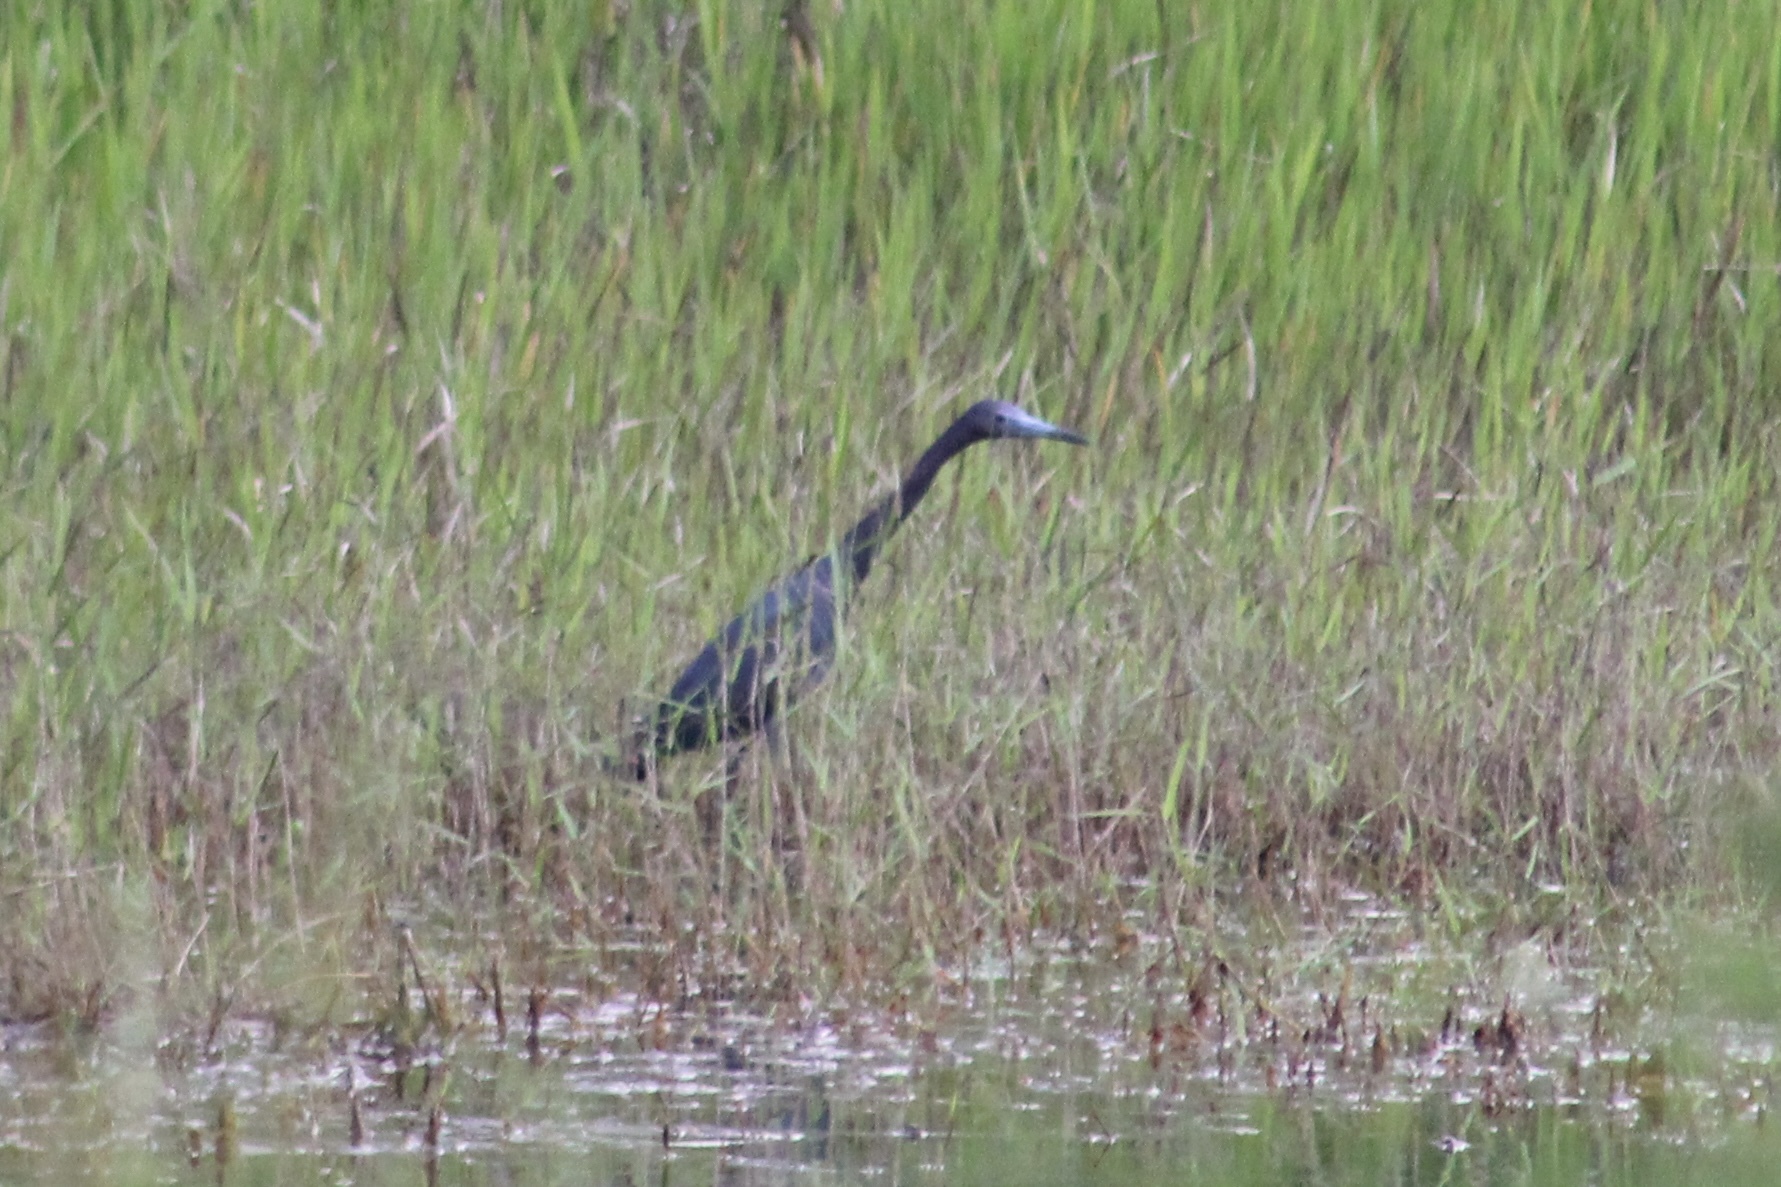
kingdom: Animalia
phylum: Chordata
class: Aves
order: Pelecaniformes
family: Ardeidae
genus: Egretta
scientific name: Egretta caerulea
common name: Little blue heron
